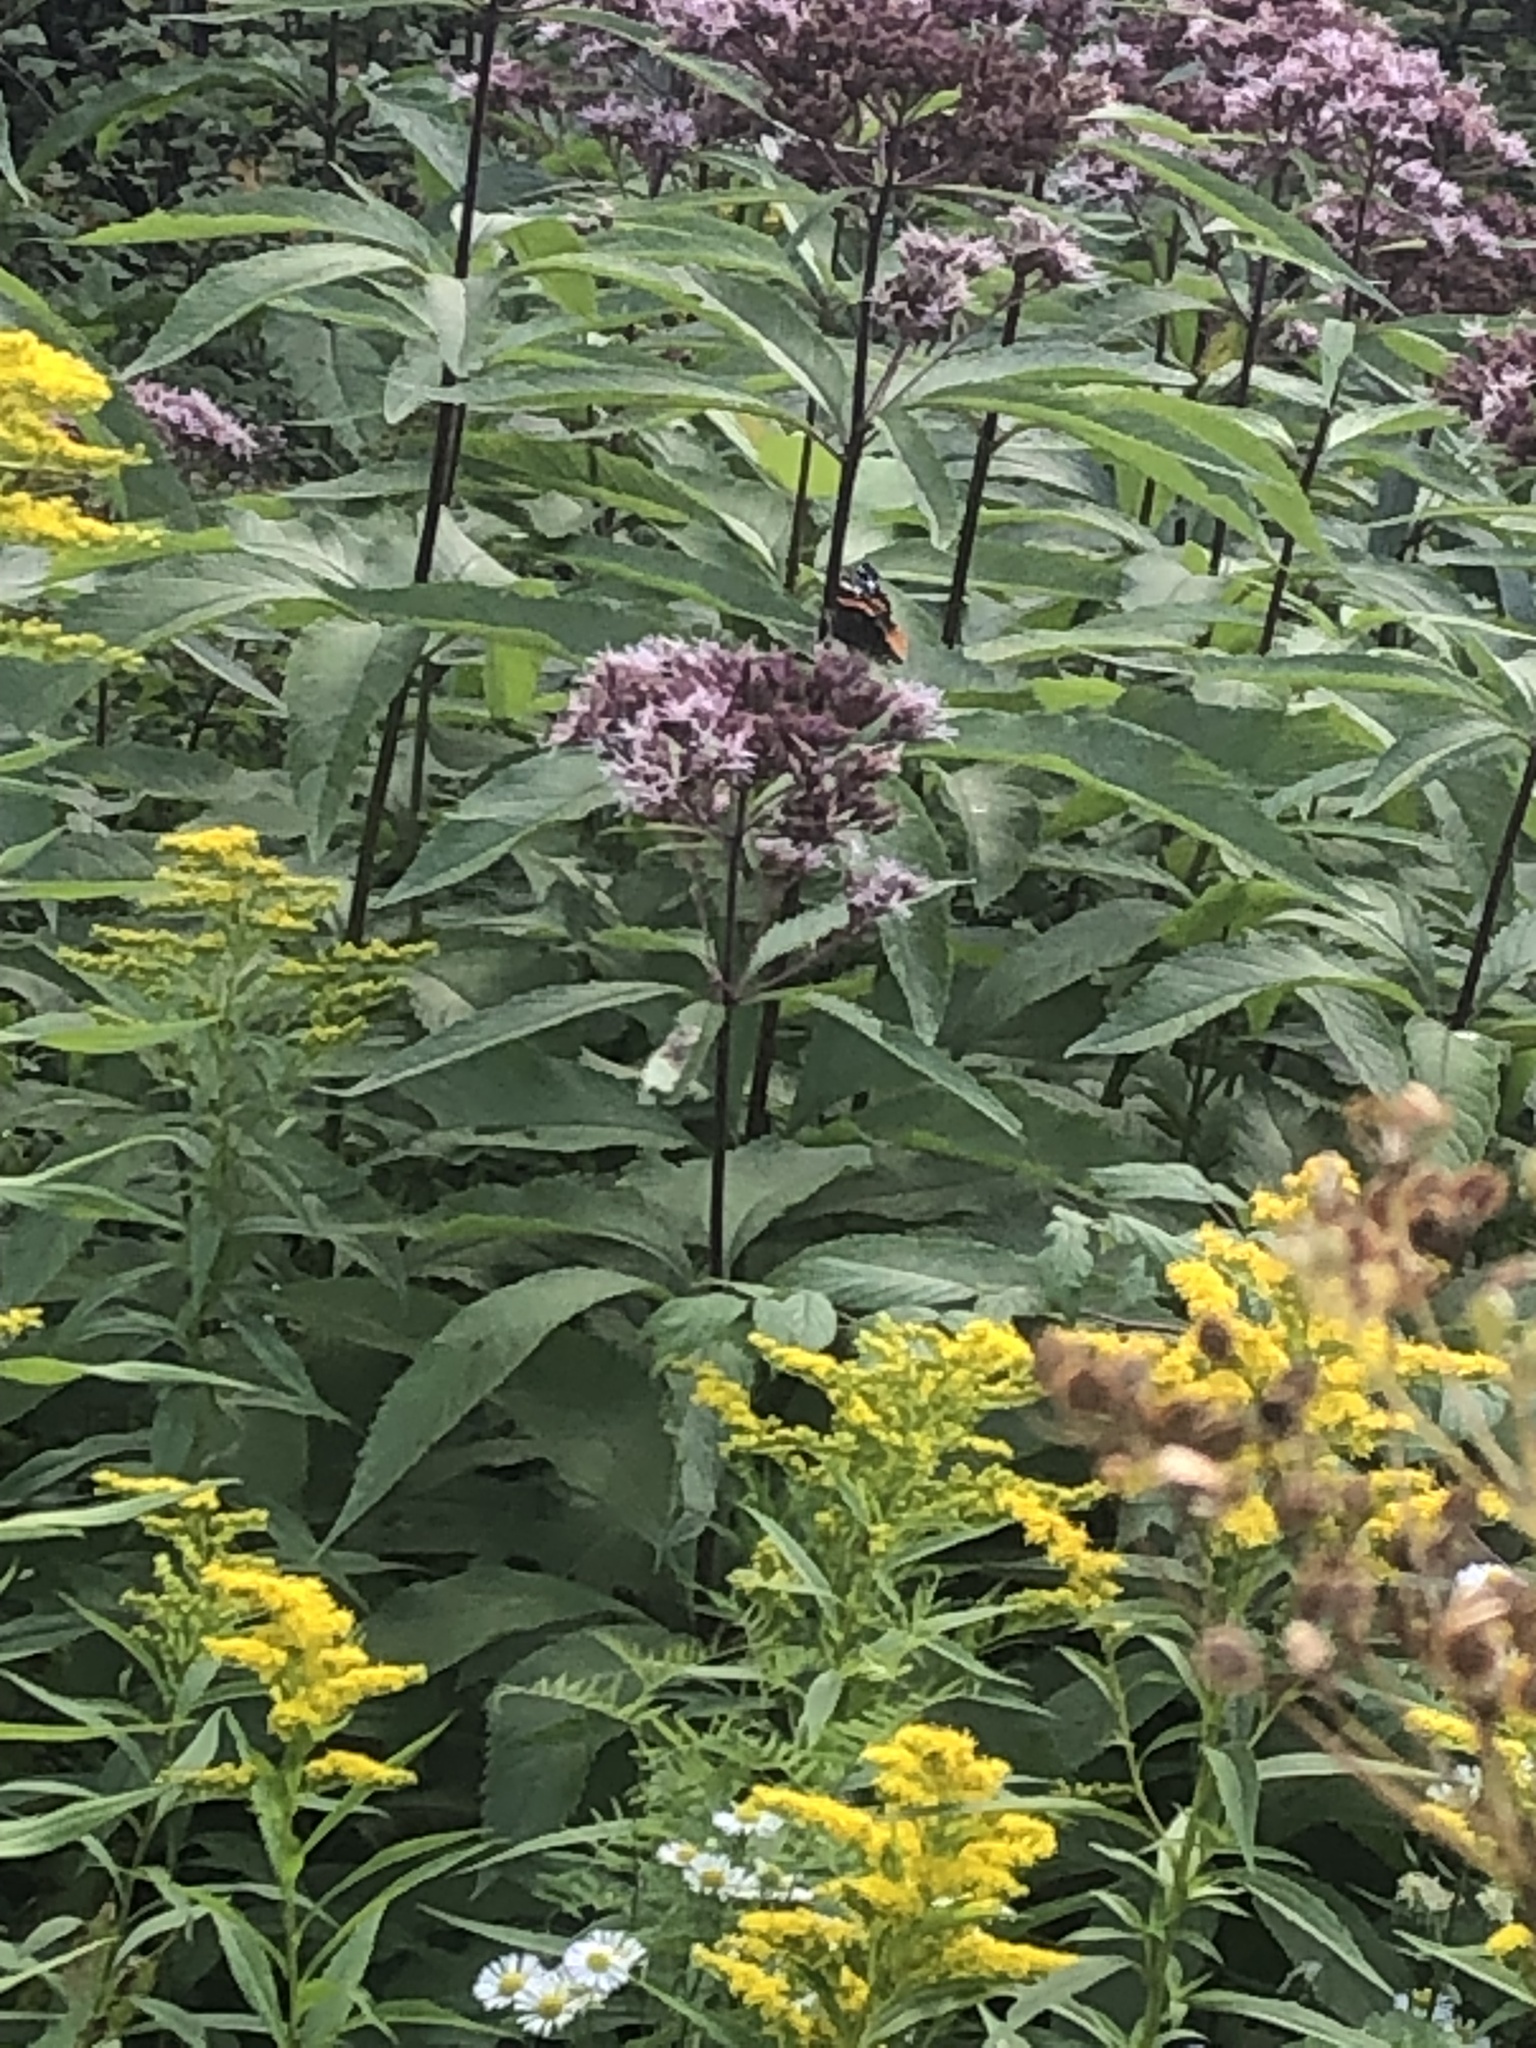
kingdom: Animalia
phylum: Arthropoda
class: Insecta
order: Lepidoptera
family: Nymphalidae
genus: Vanessa
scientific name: Vanessa atalanta
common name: Red admiral
